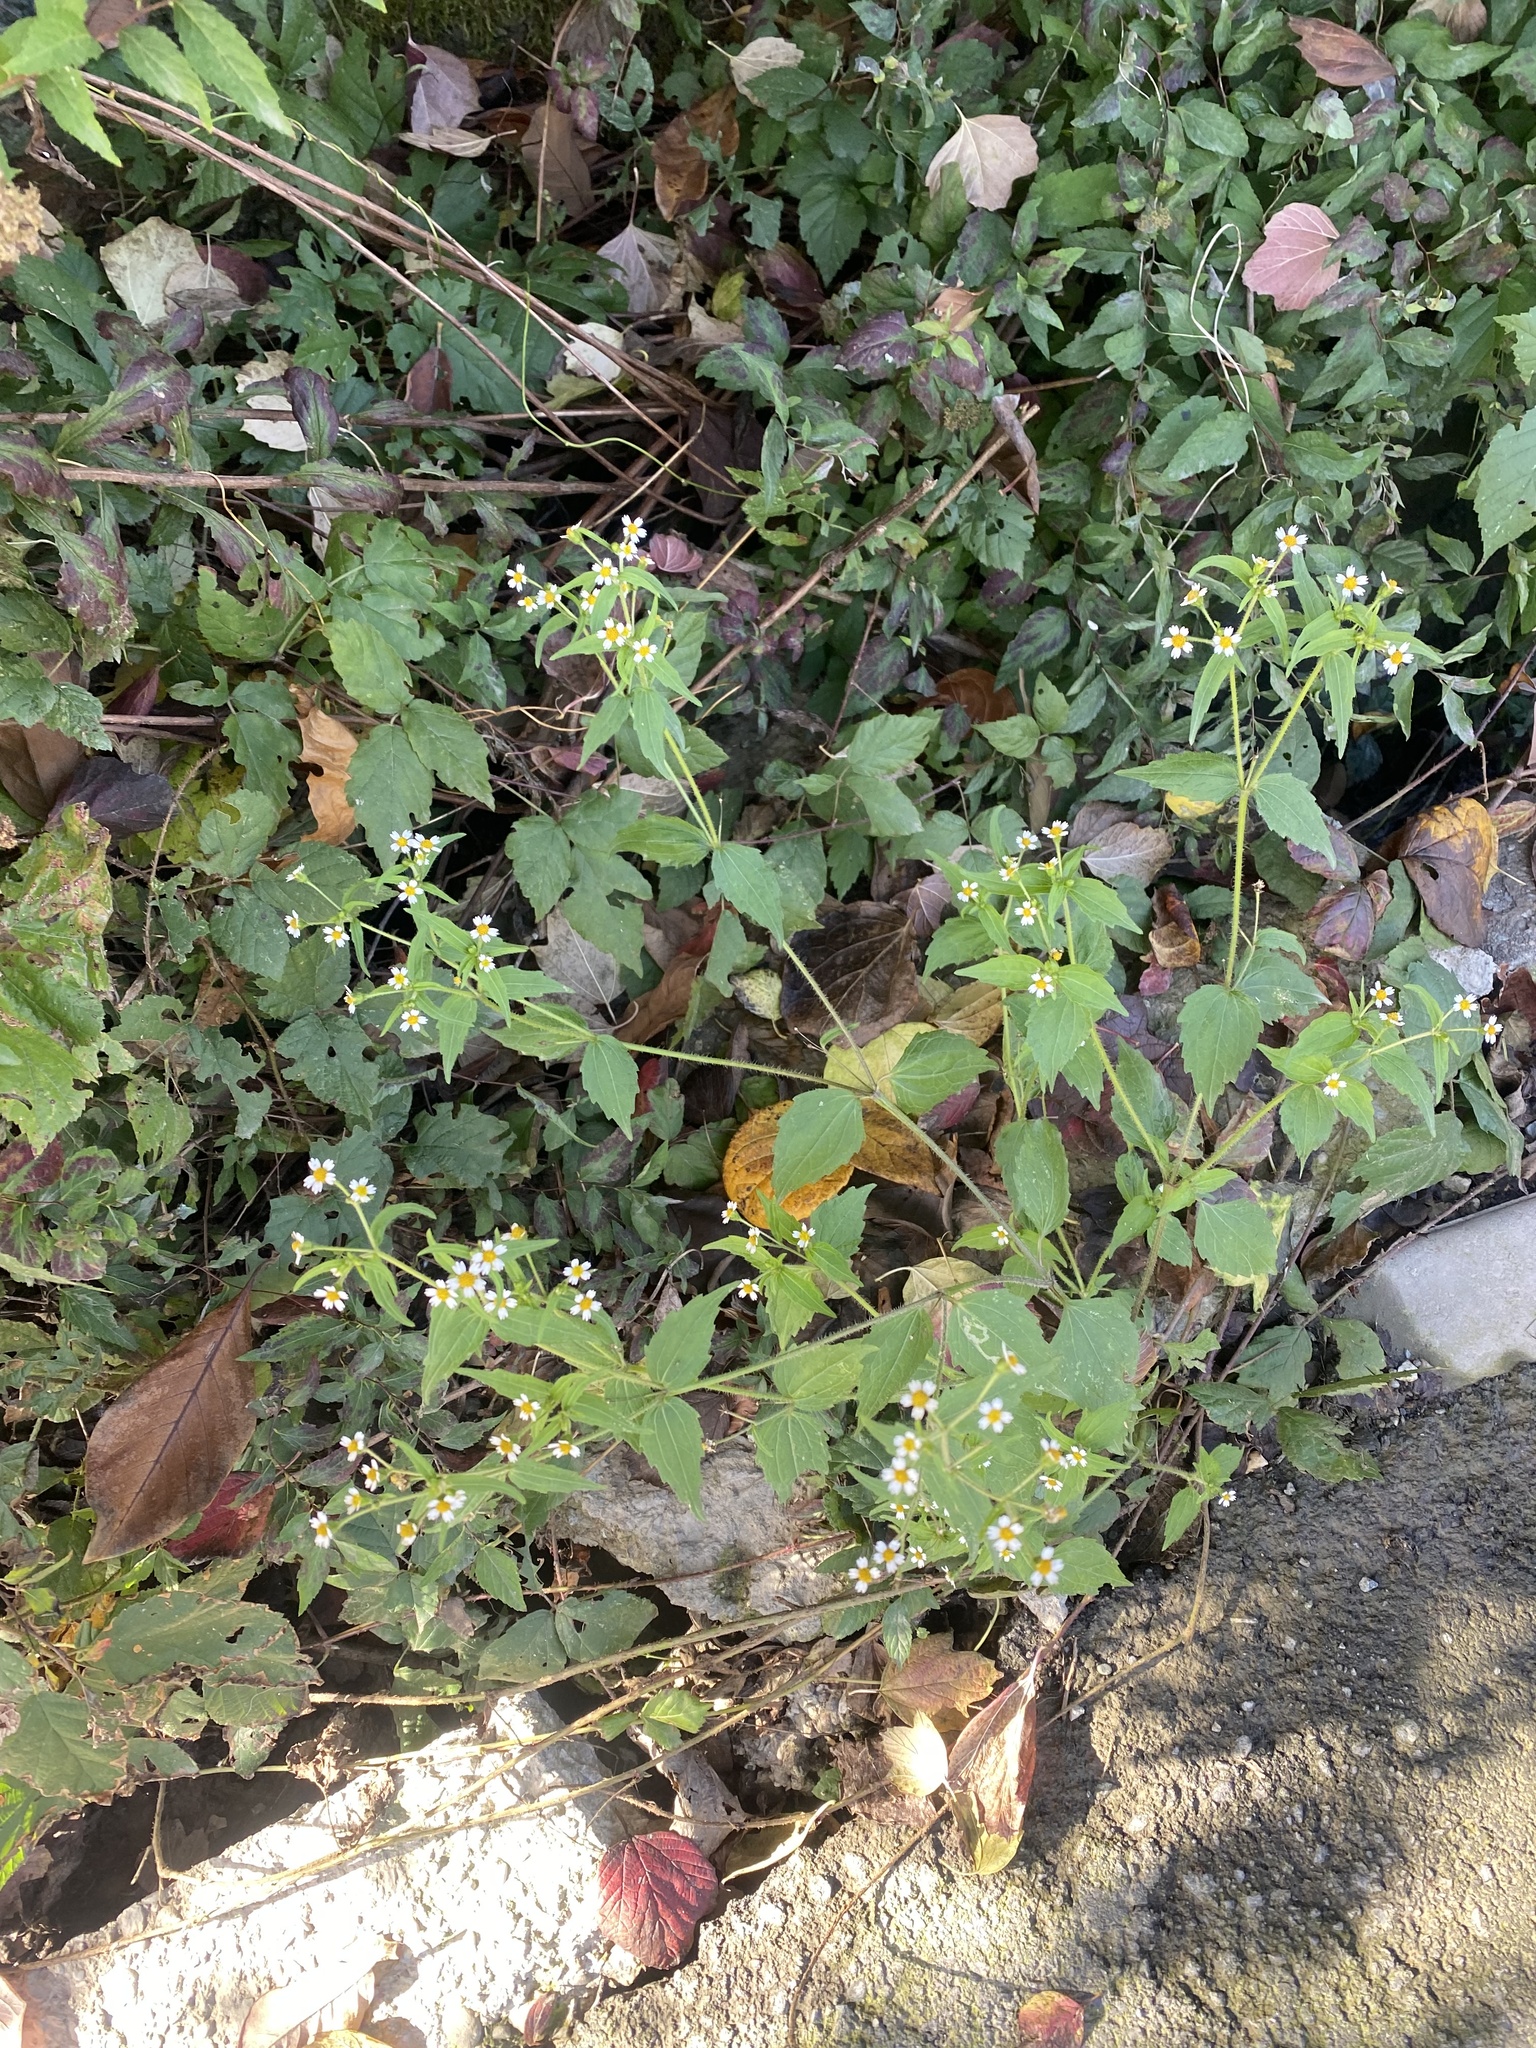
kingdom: Plantae
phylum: Tracheophyta
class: Magnoliopsida
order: Asterales
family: Asteraceae
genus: Galinsoga
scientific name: Galinsoga quadriradiata
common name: Shaggy soldier
